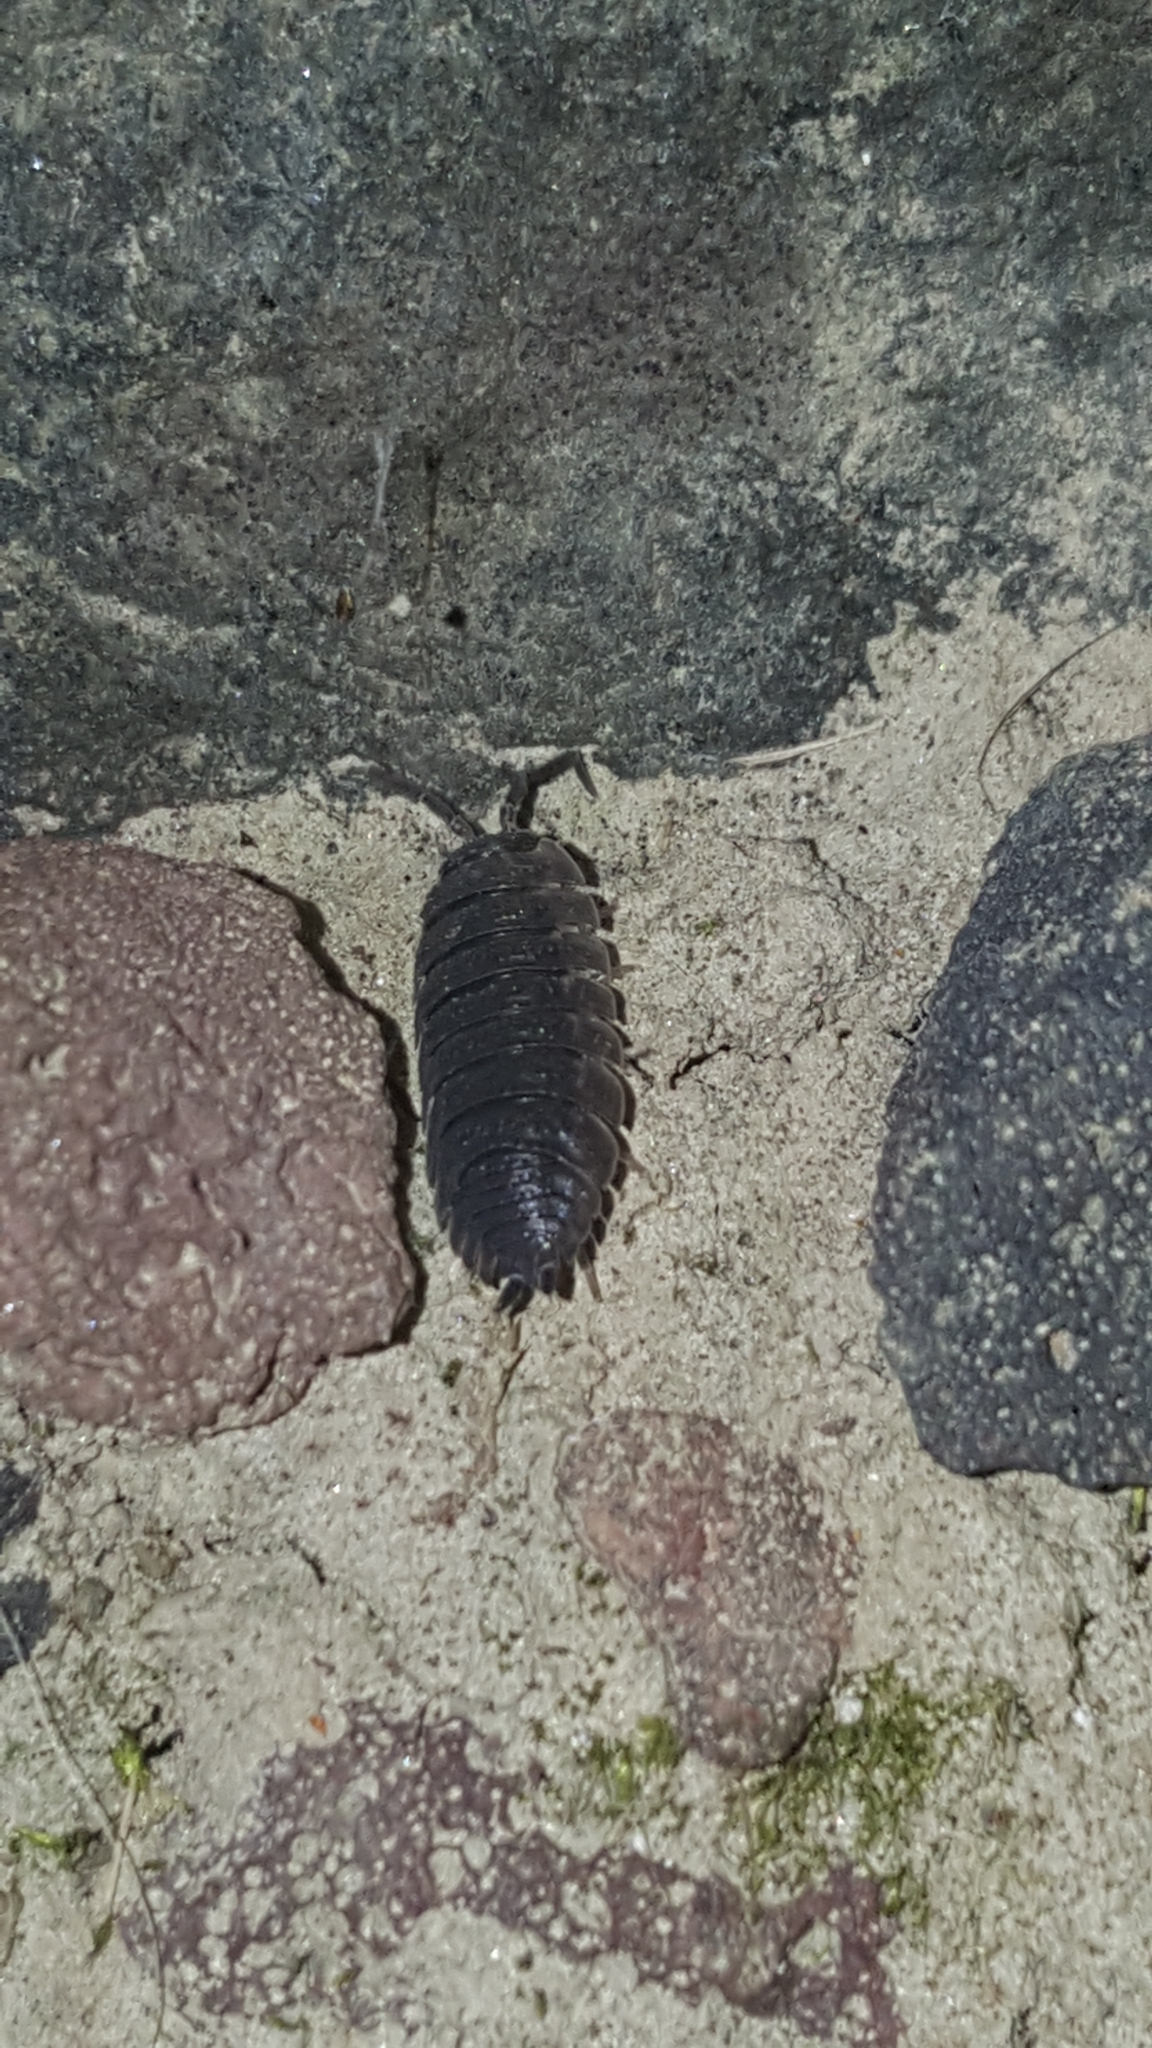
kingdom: Animalia
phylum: Arthropoda
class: Malacostraca
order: Isopoda
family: Porcellionidae
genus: Porcellio
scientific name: Porcellio scaber
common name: Common rough woodlouse
